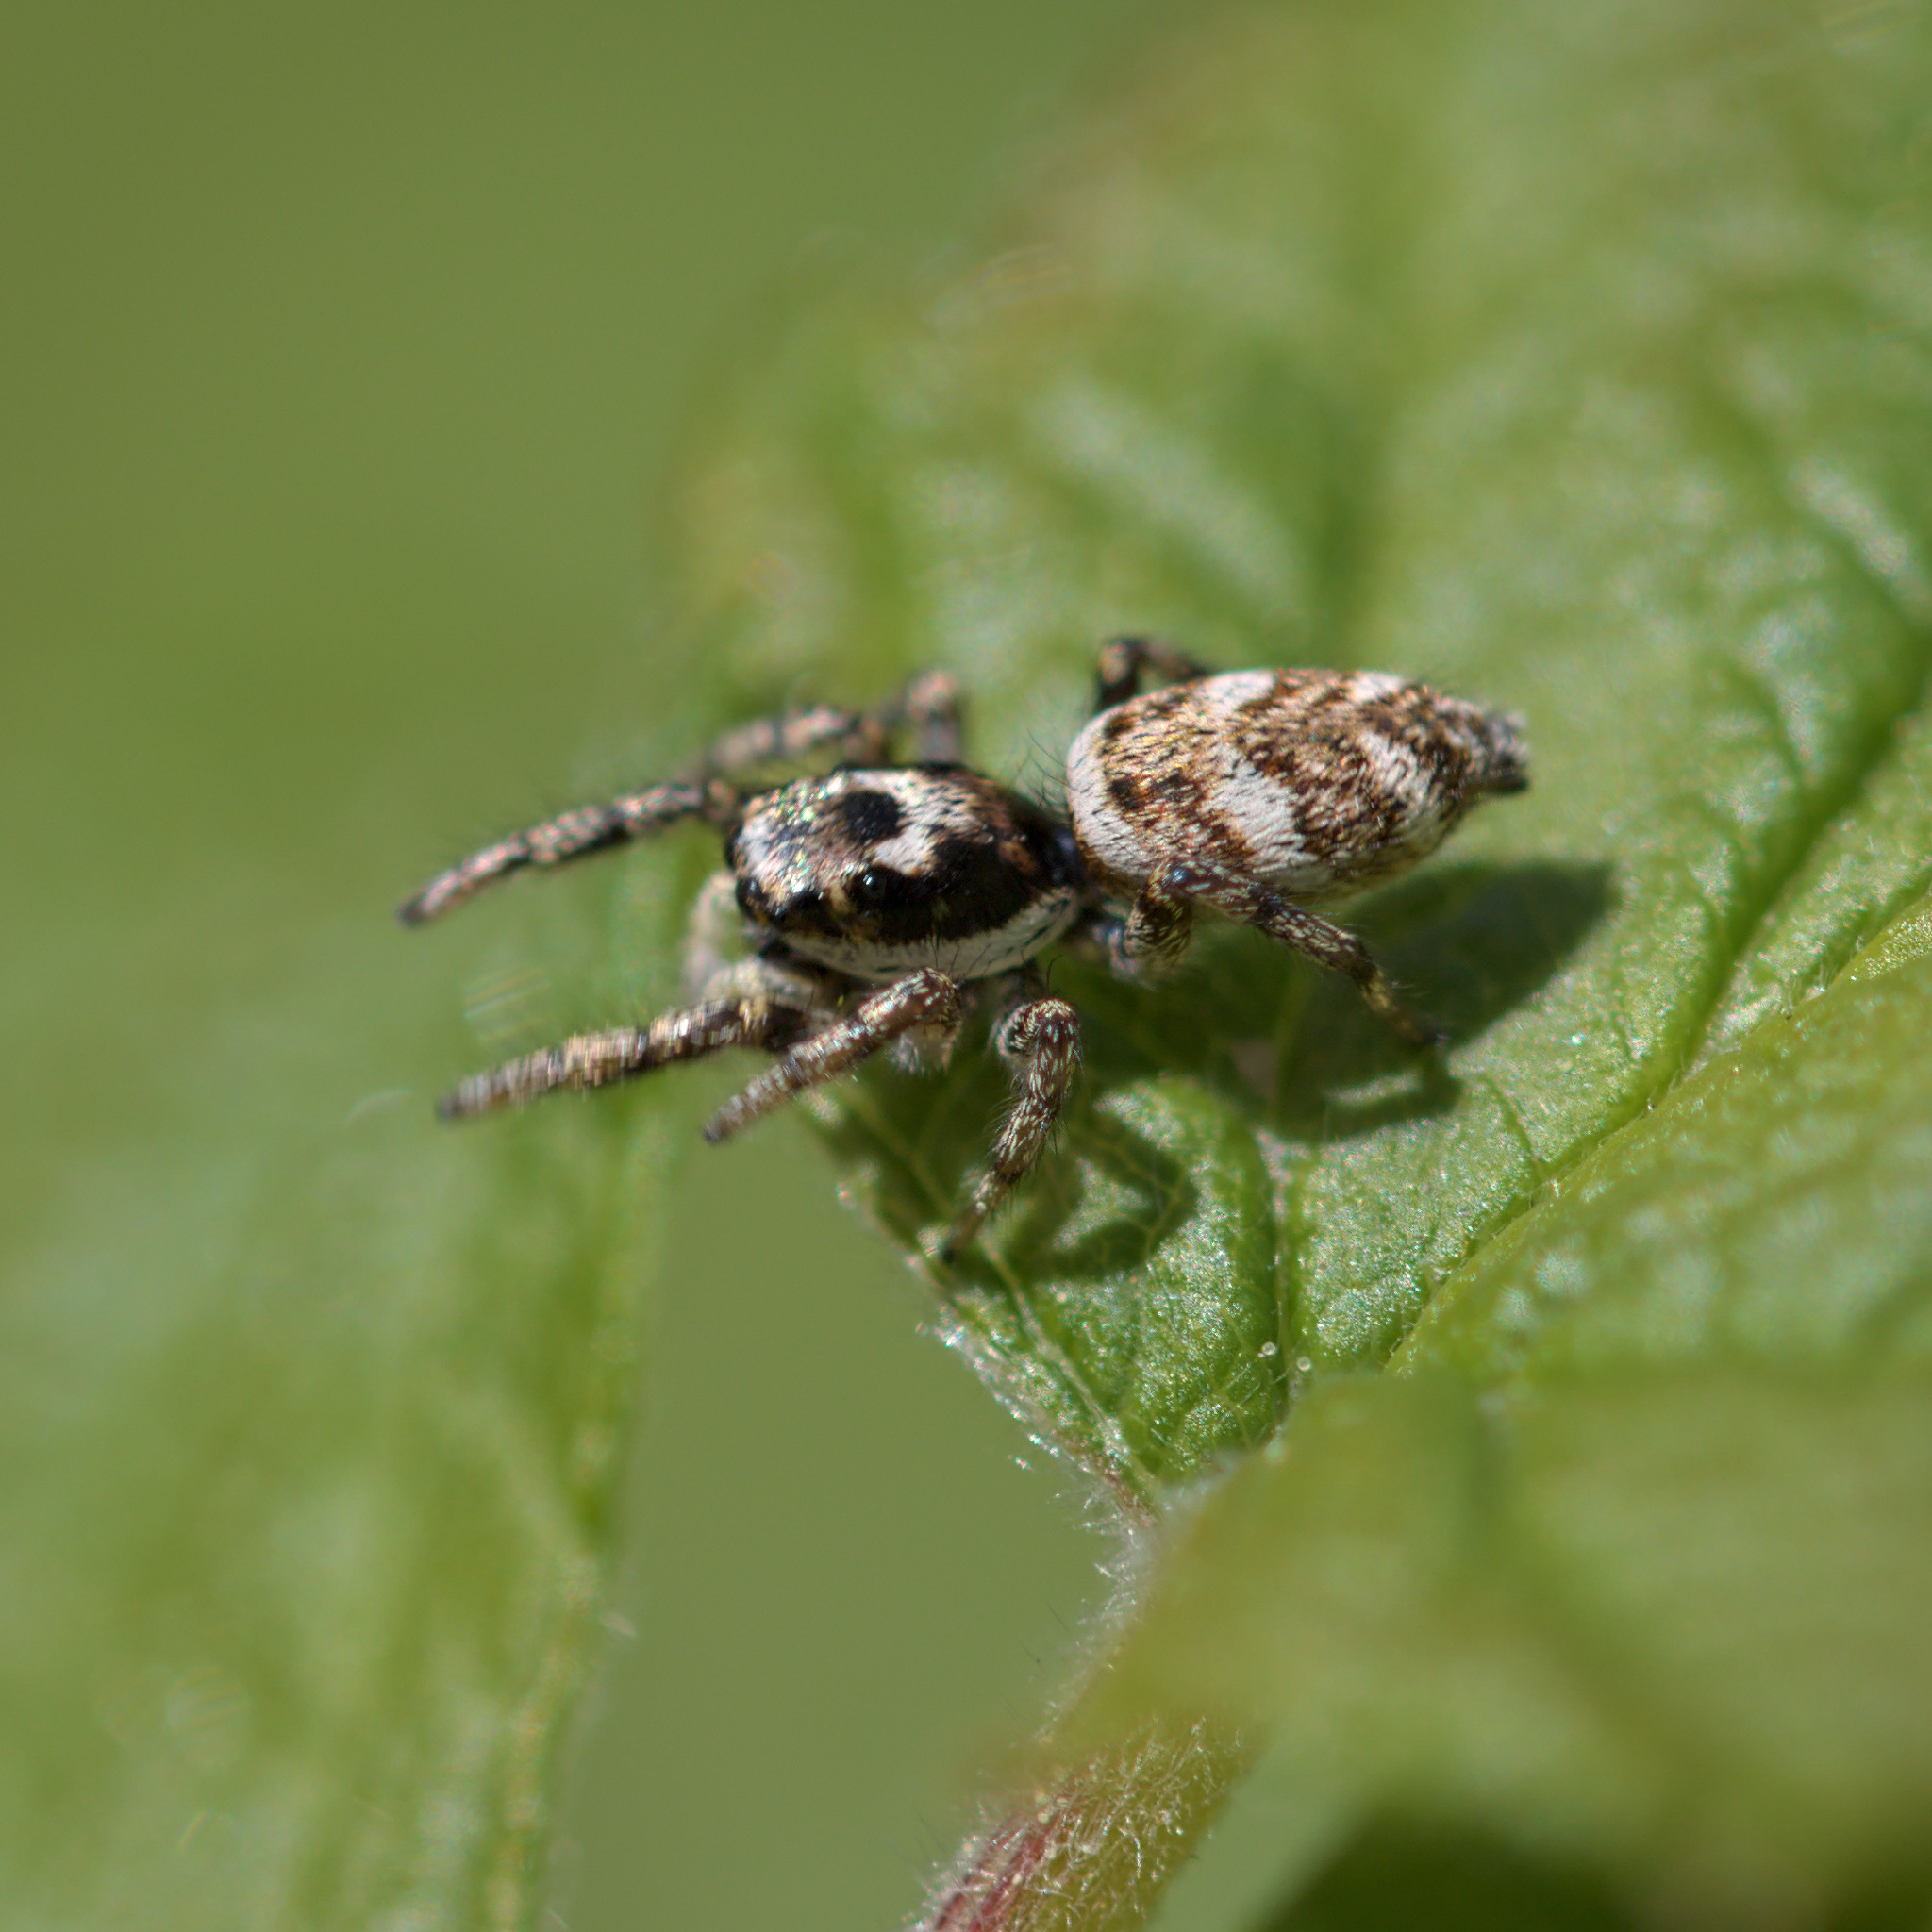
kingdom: Animalia
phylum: Arthropoda
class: Arachnida
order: Araneae
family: Salticidae
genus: Salticus
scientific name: Salticus scenicus
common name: Zebra jumper
